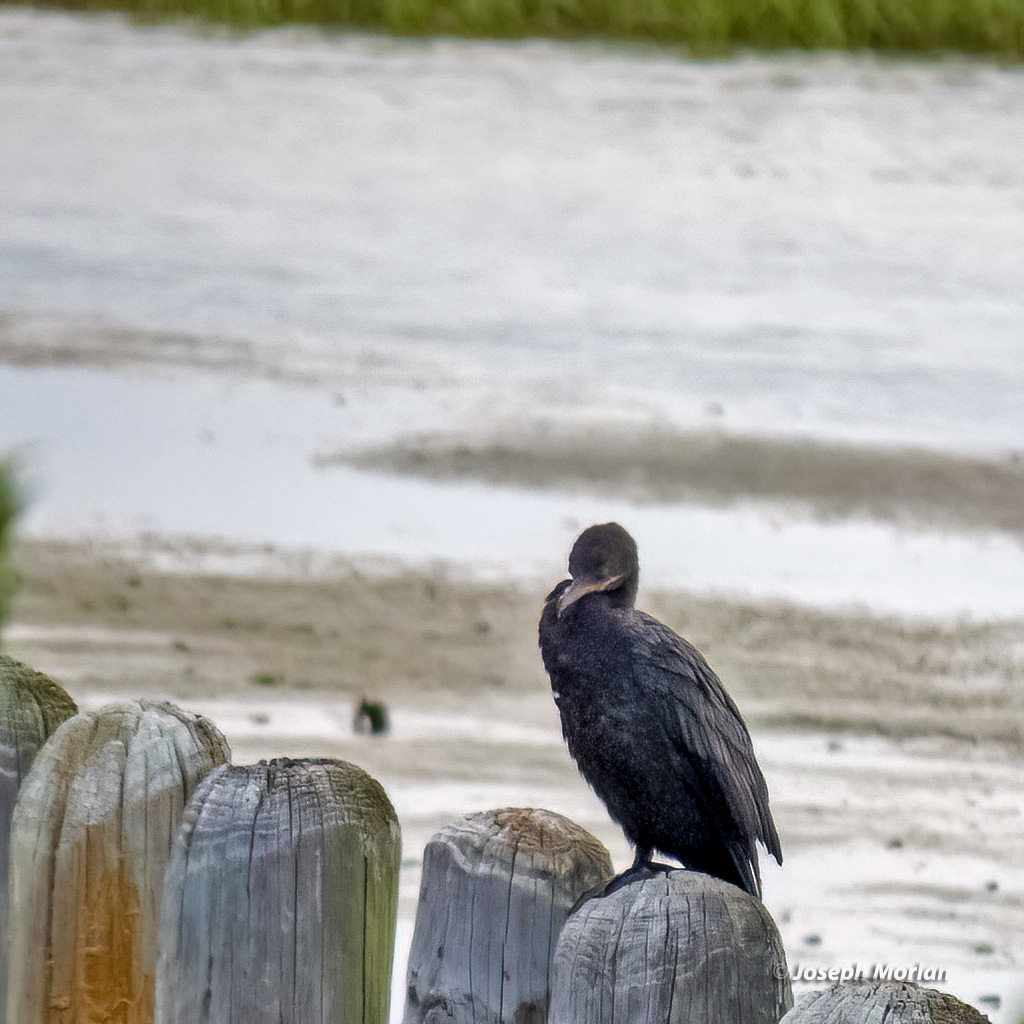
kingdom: Animalia
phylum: Chordata
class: Aves
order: Suliformes
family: Phalacrocoracidae
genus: Phalacrocorax
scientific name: Phalacrocorax brasilianus
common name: Neotropic cormorant
